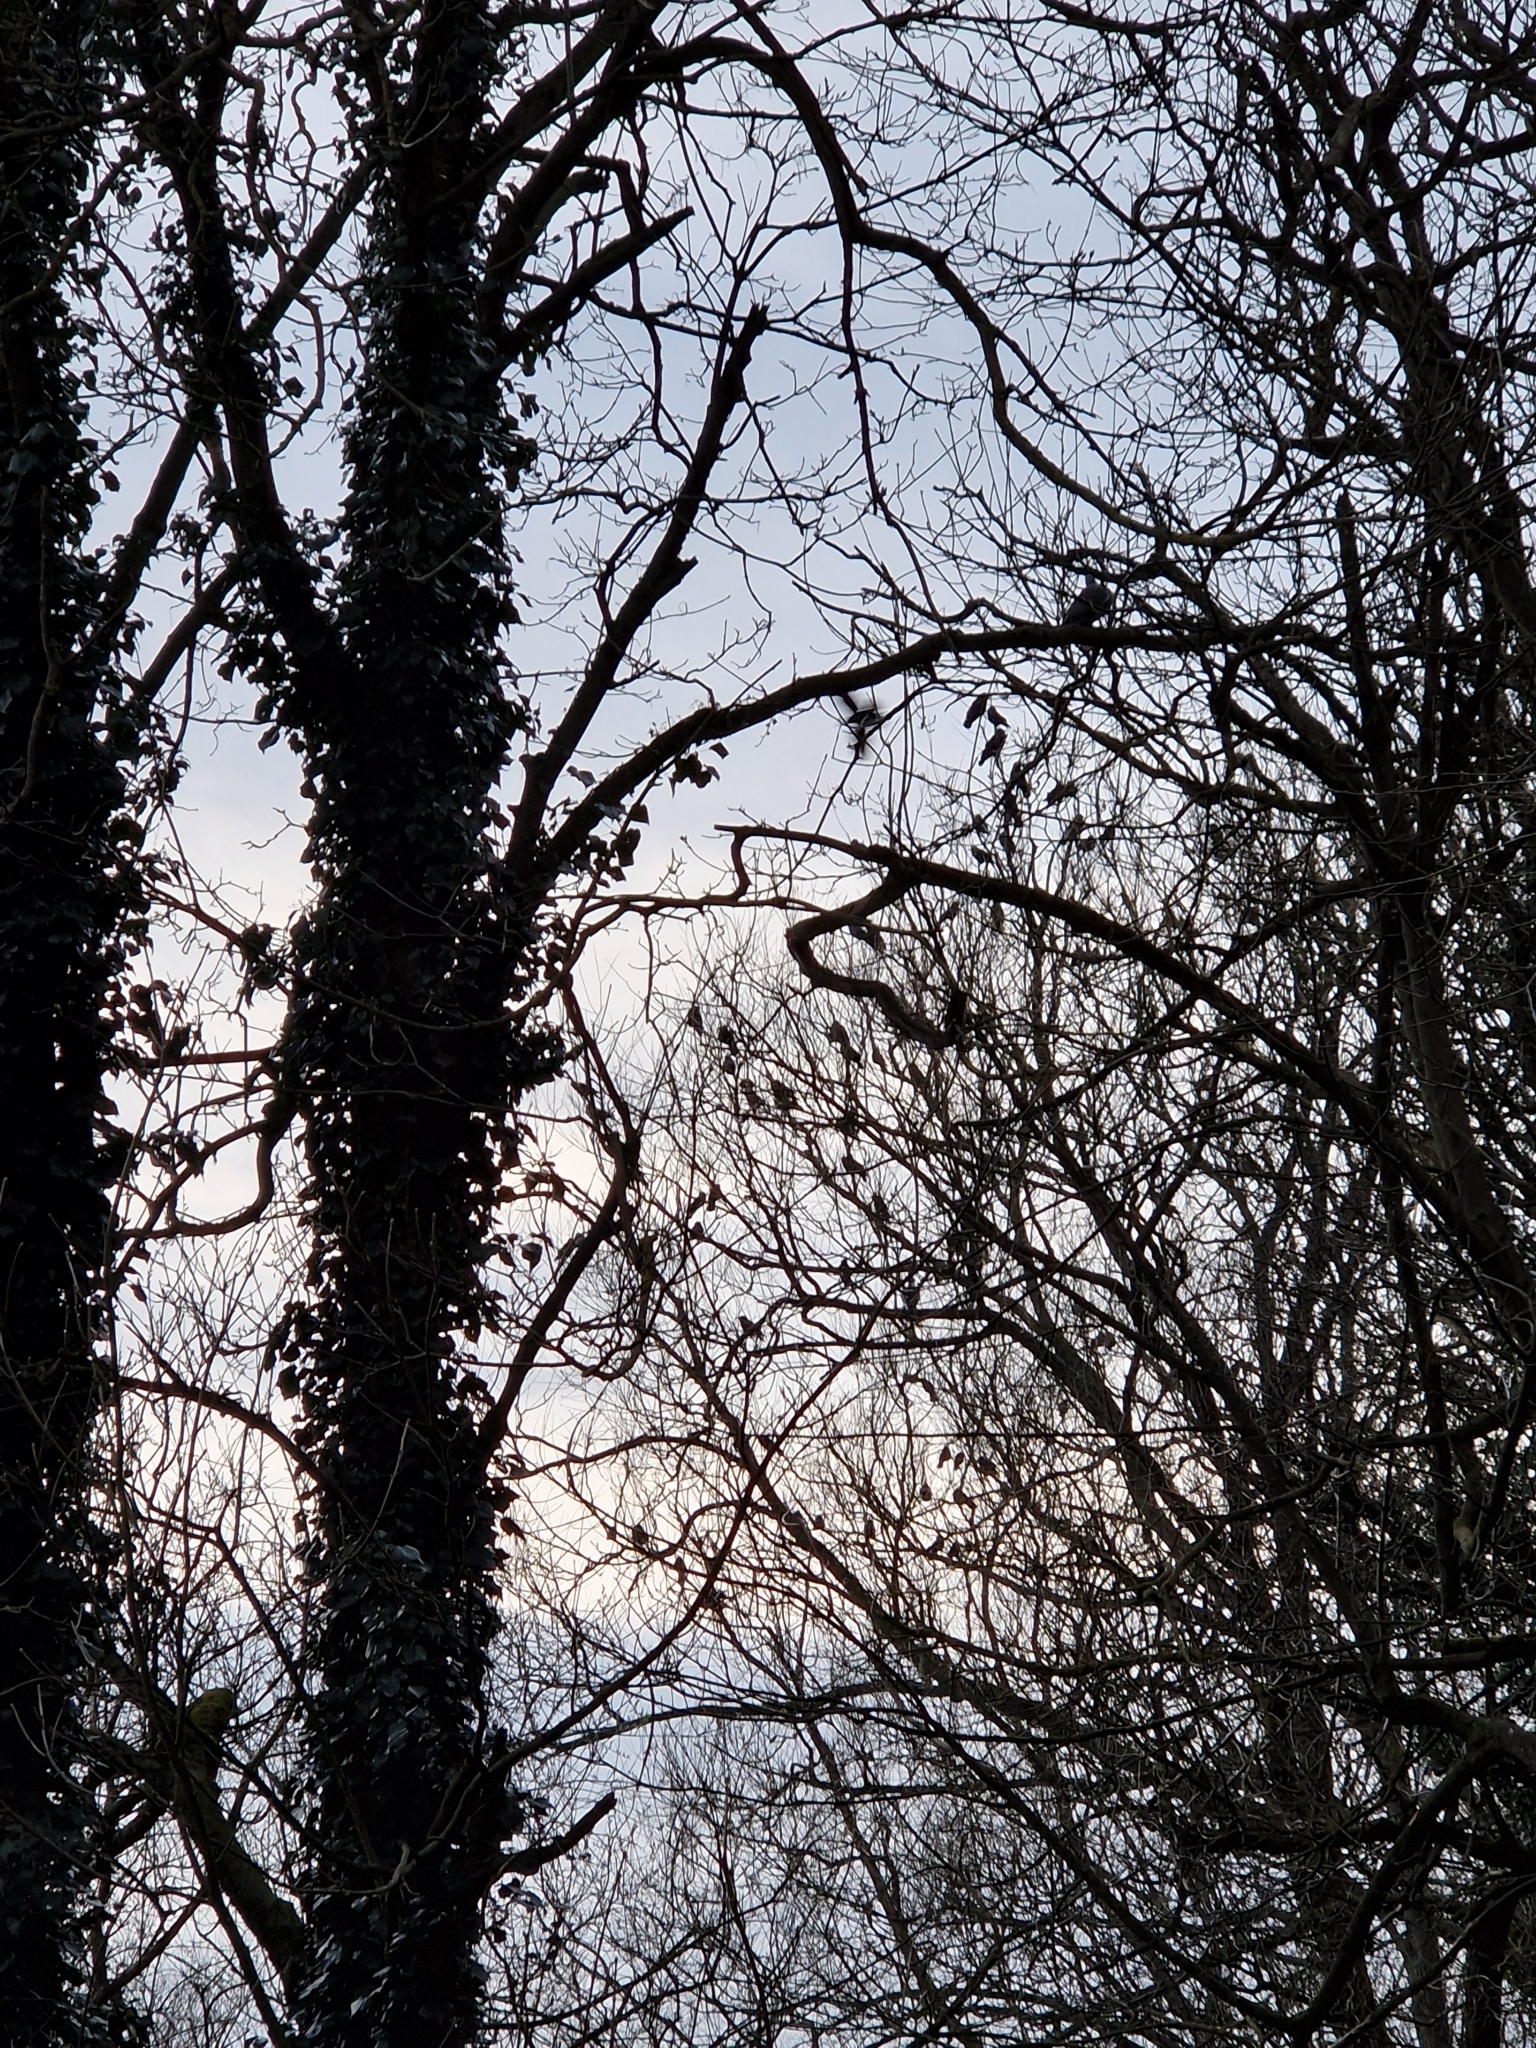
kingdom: Animalia
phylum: Chordata
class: Aves
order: Passeriformes
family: Corvidae
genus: Coloeus
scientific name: Coloeus monedula
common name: Western jackdaw
